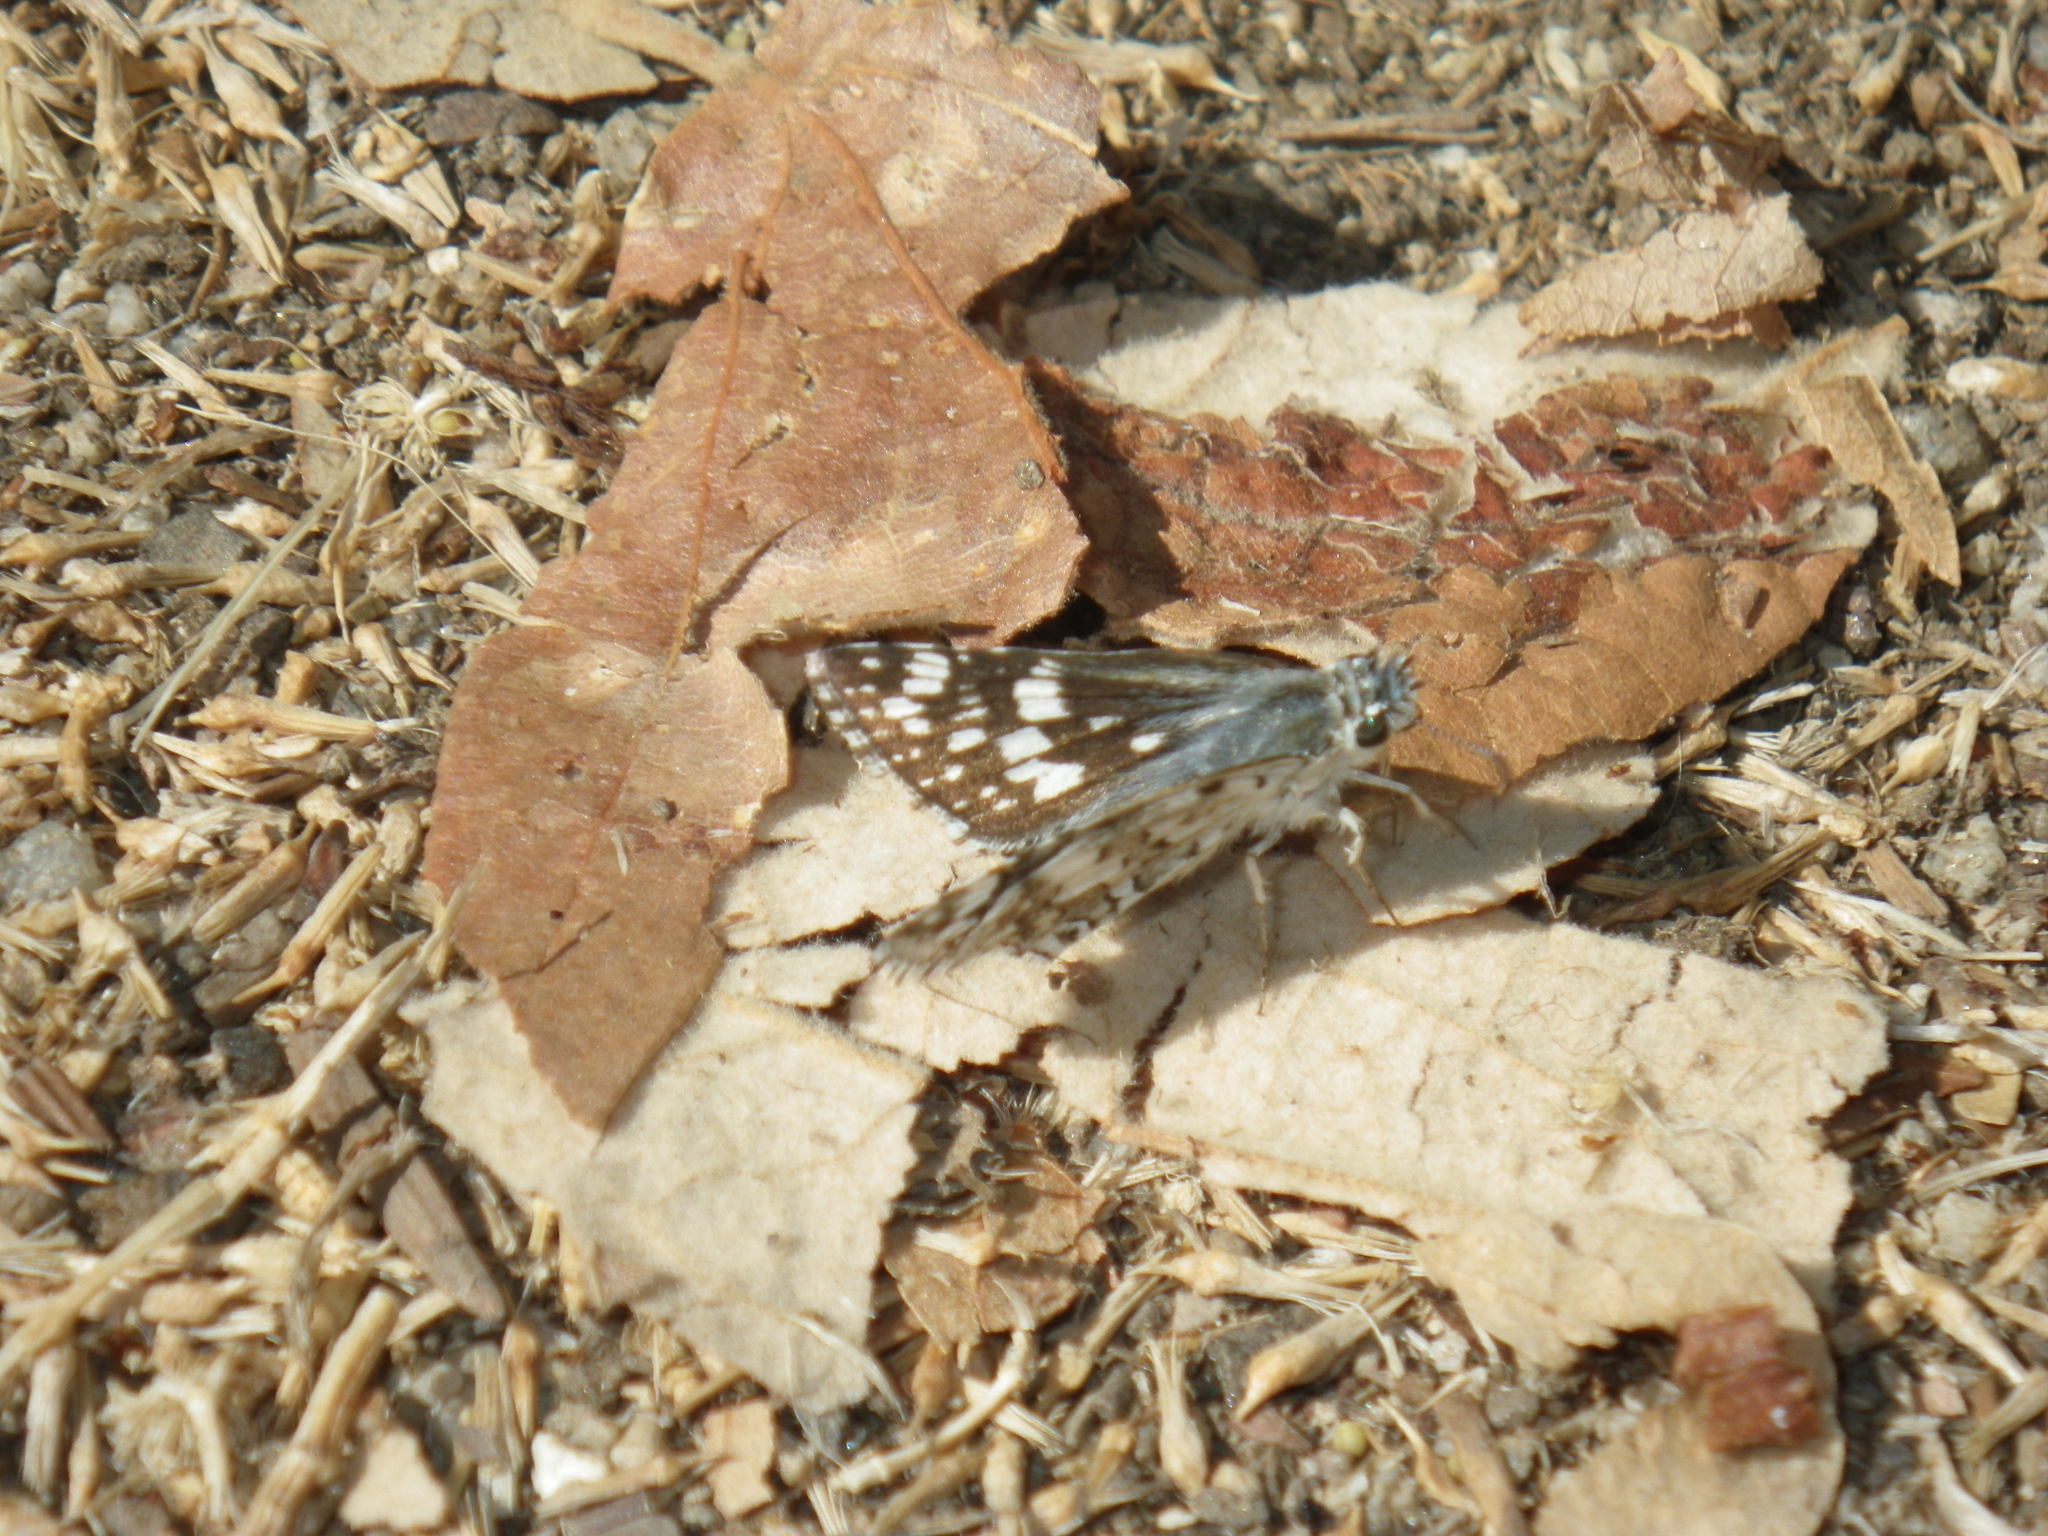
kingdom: Animalia
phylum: Arthropoda
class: Insecta
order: Lepidoptera
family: Hesperiidae
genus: Burnsius
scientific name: Burnsius communis
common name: Common checkered-skipper
